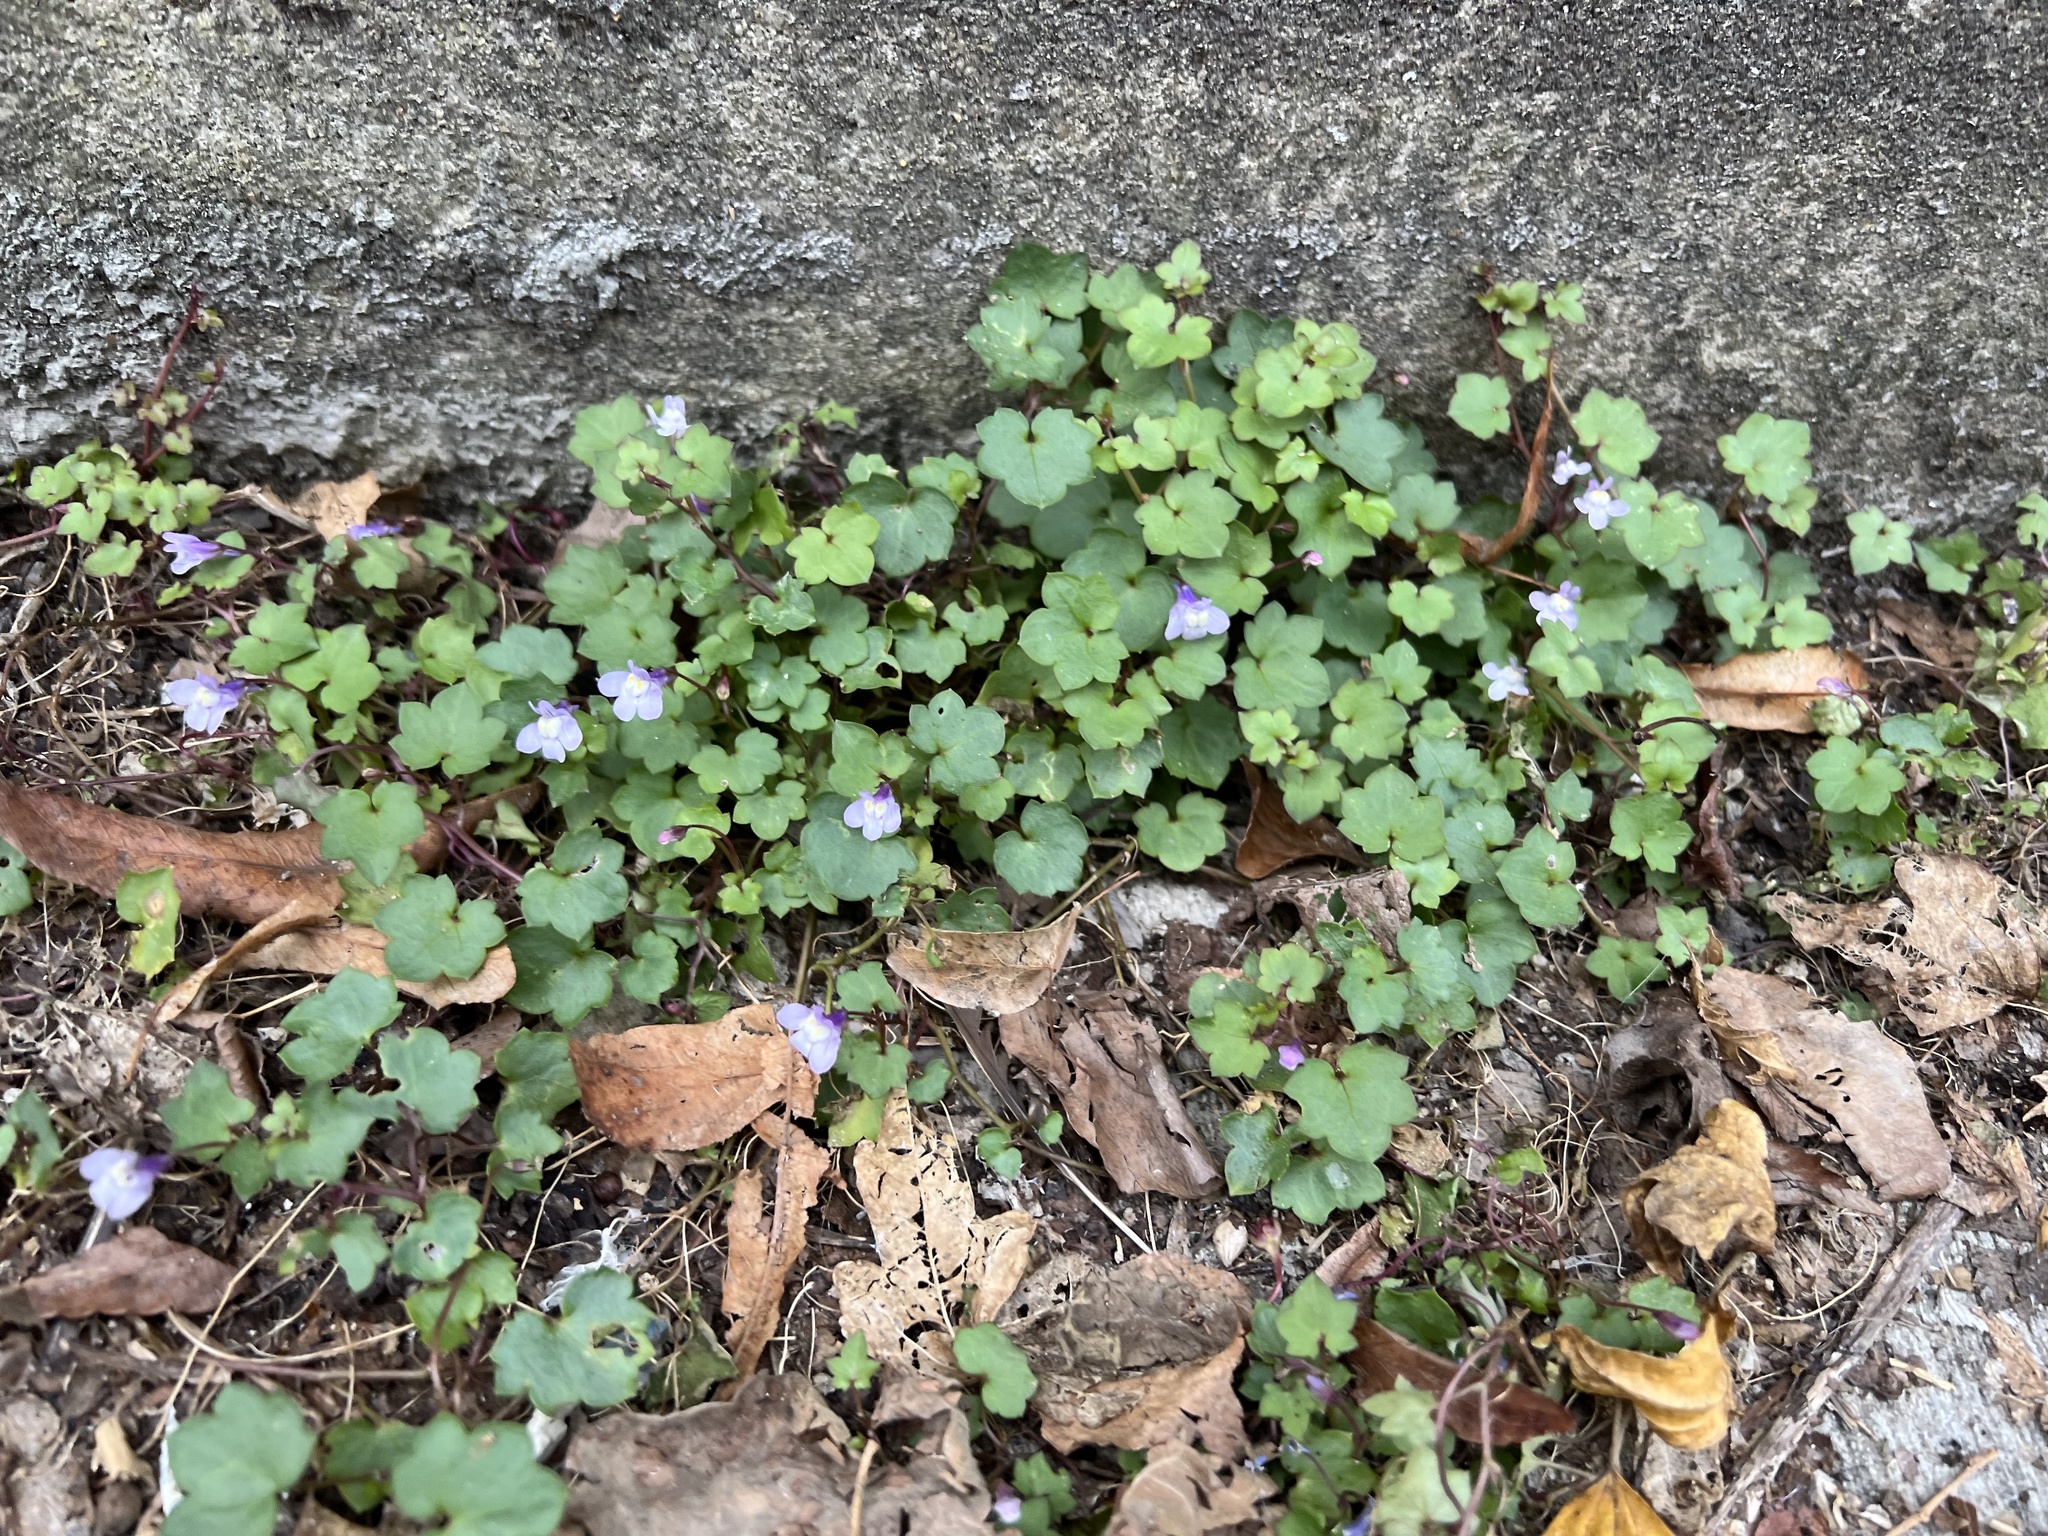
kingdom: Plantae
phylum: Tracheophyta
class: Magnoliopsida
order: Lamiales
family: Plantaginaceae
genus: Cymbalaria
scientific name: Cymbalaria muralis
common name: Ivy-leaved toadflax
